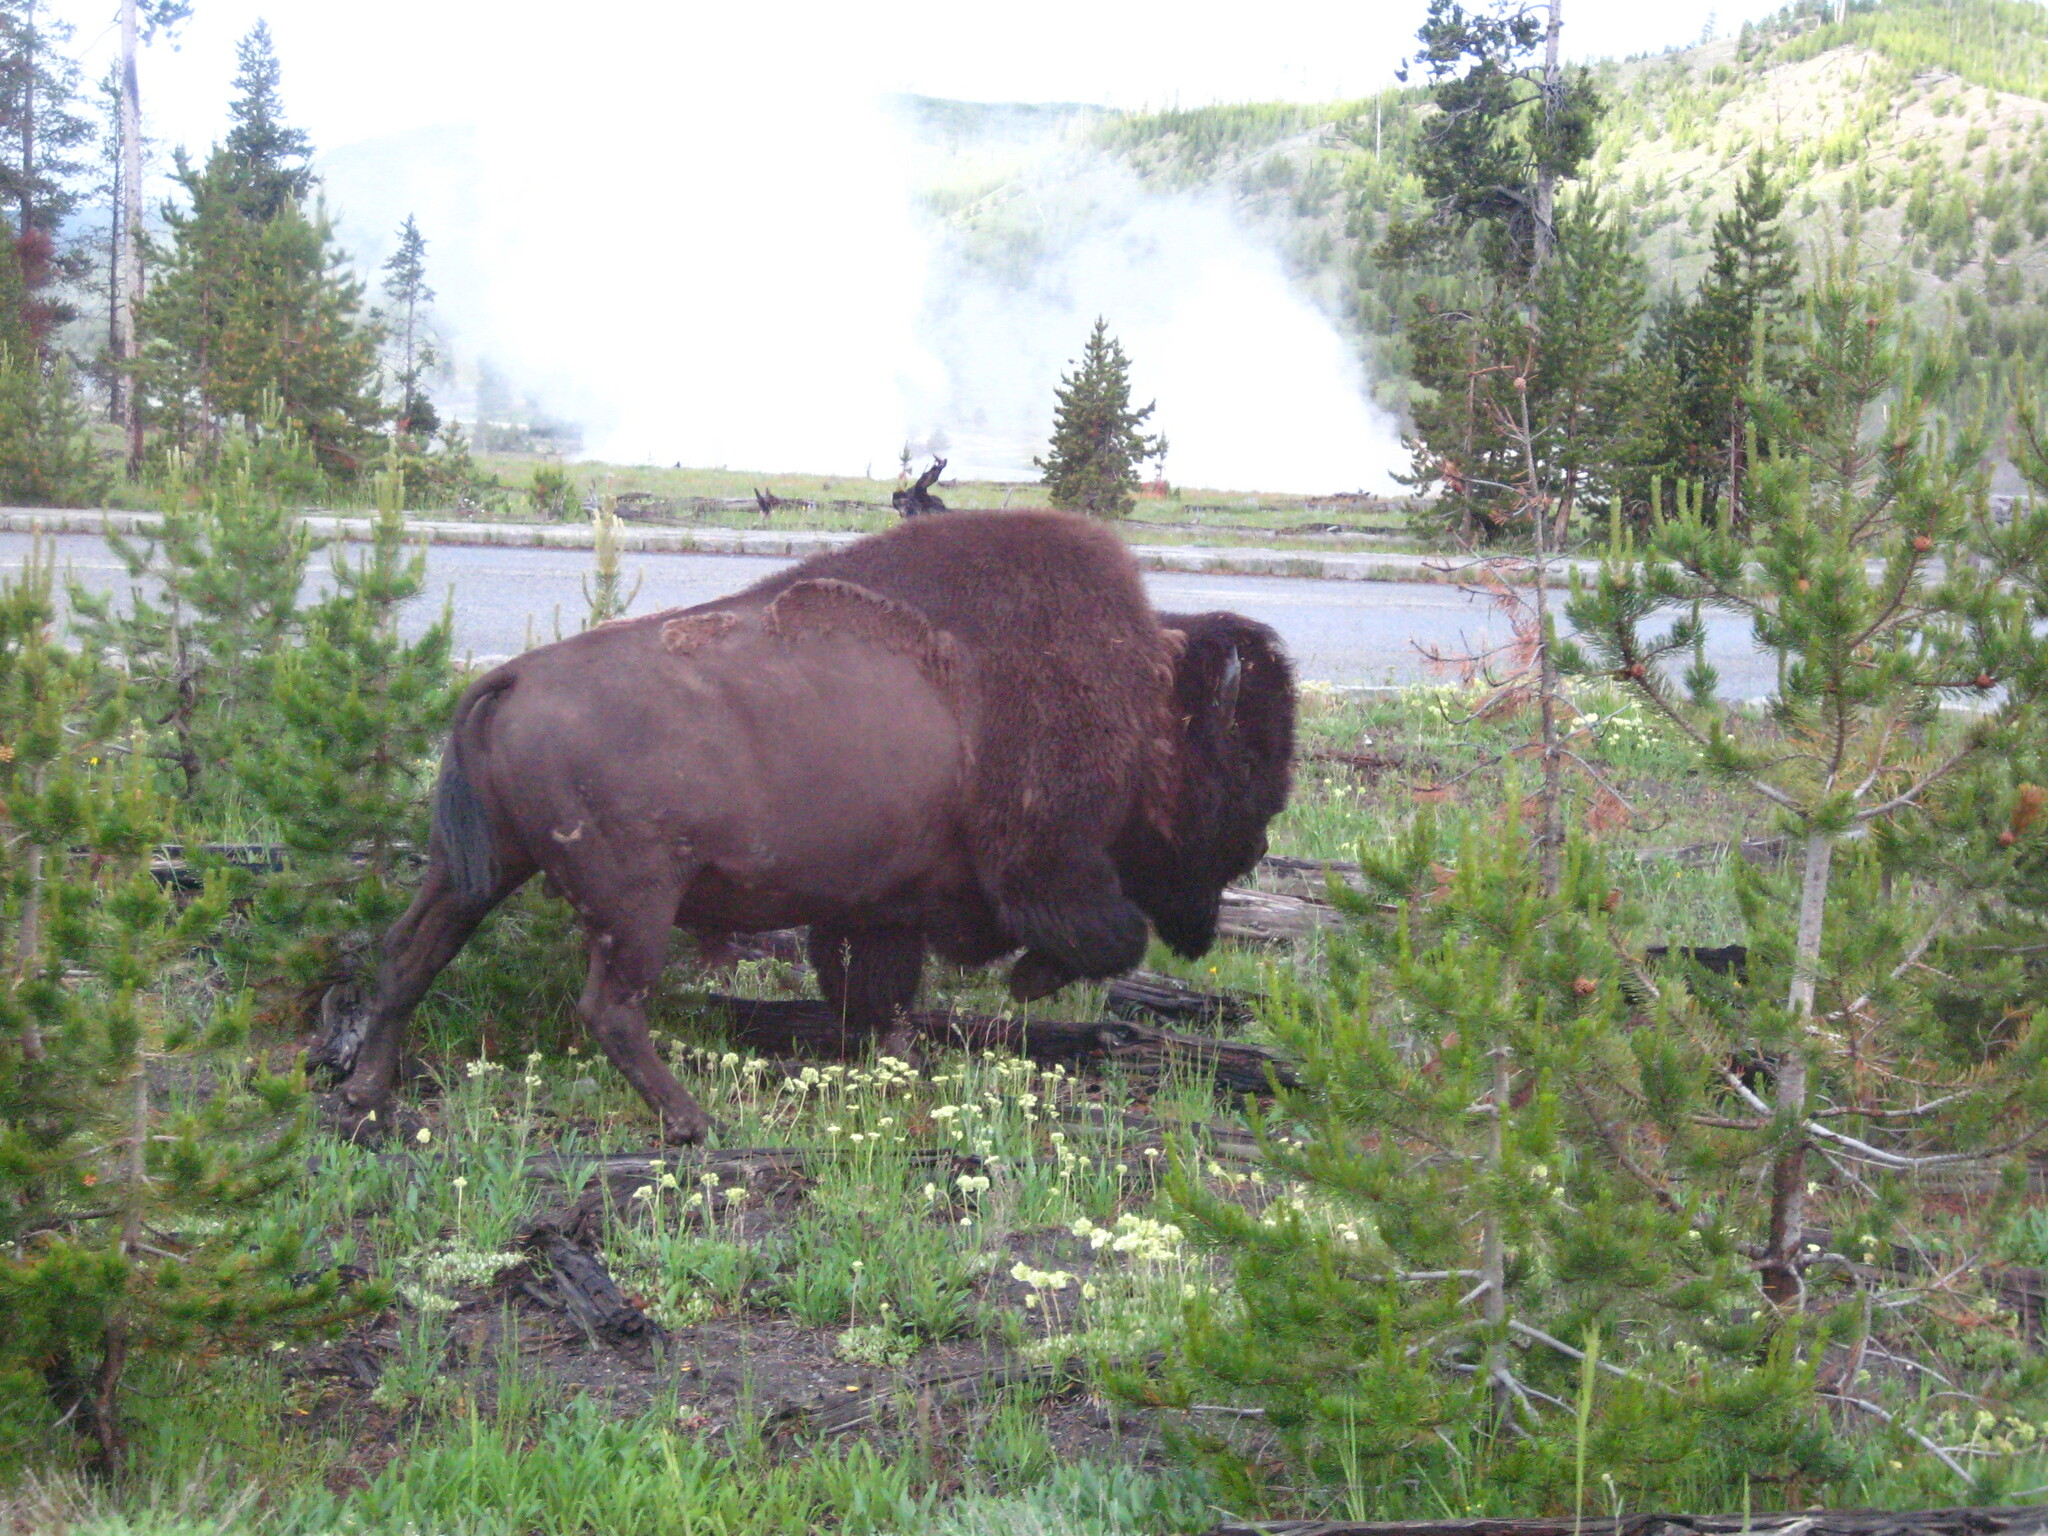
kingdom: Animalia
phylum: Chordata
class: Mammalia
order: Artiodactyla
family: Bovidae
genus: Bison
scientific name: Bison bison
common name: American bison
